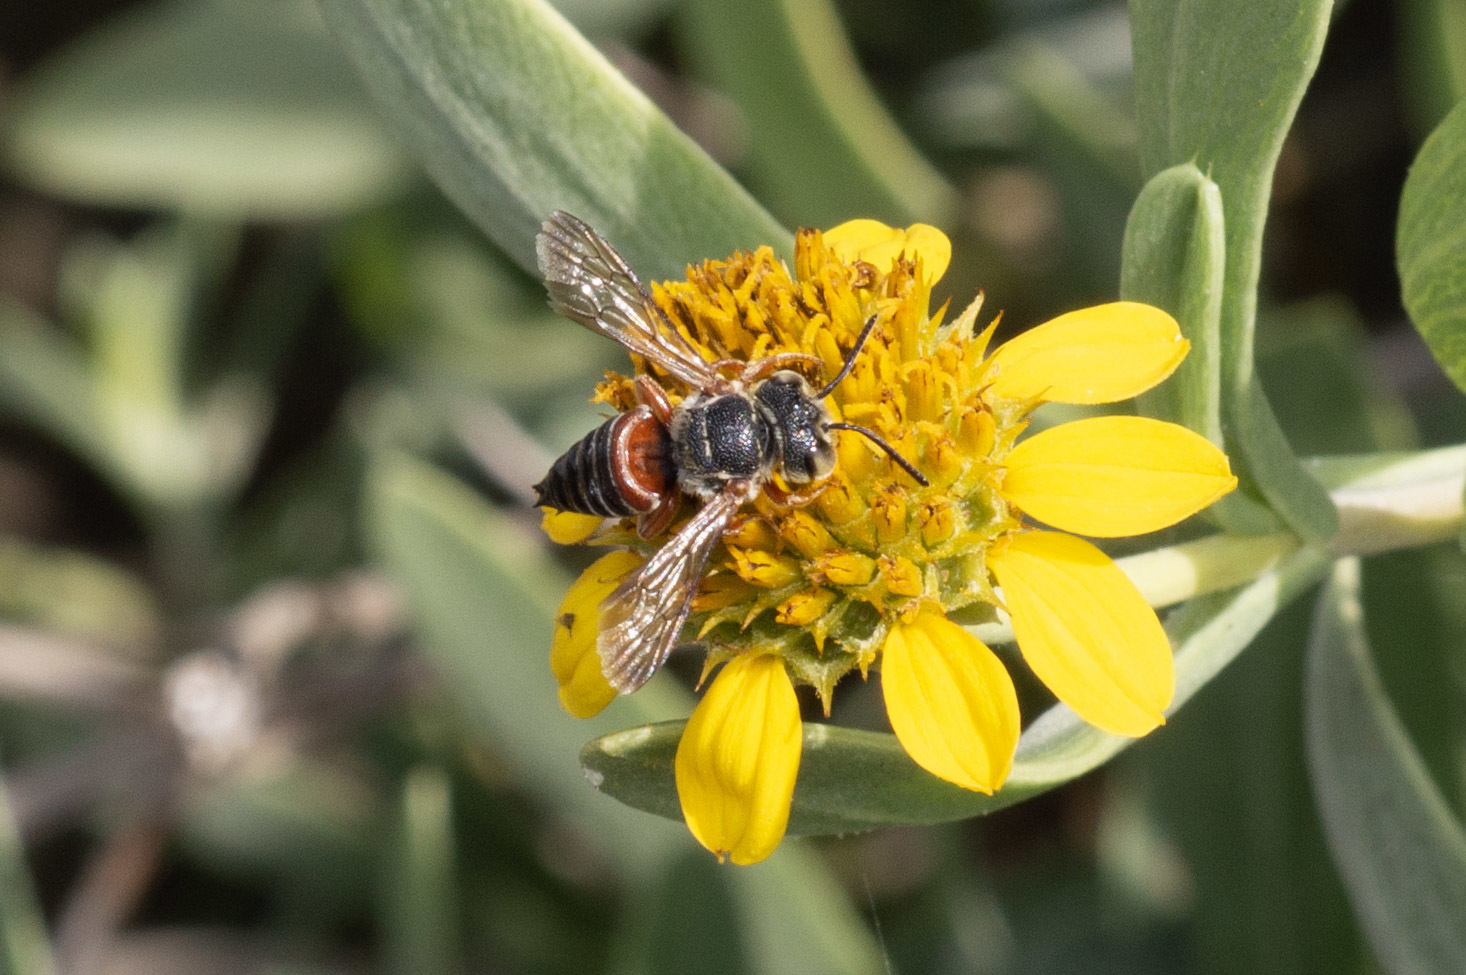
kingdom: Animalia
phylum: Arthropoda
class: Insecta
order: Hymenoptera
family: Megachilidae
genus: Coelioxys
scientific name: Coelioxys slossoni
